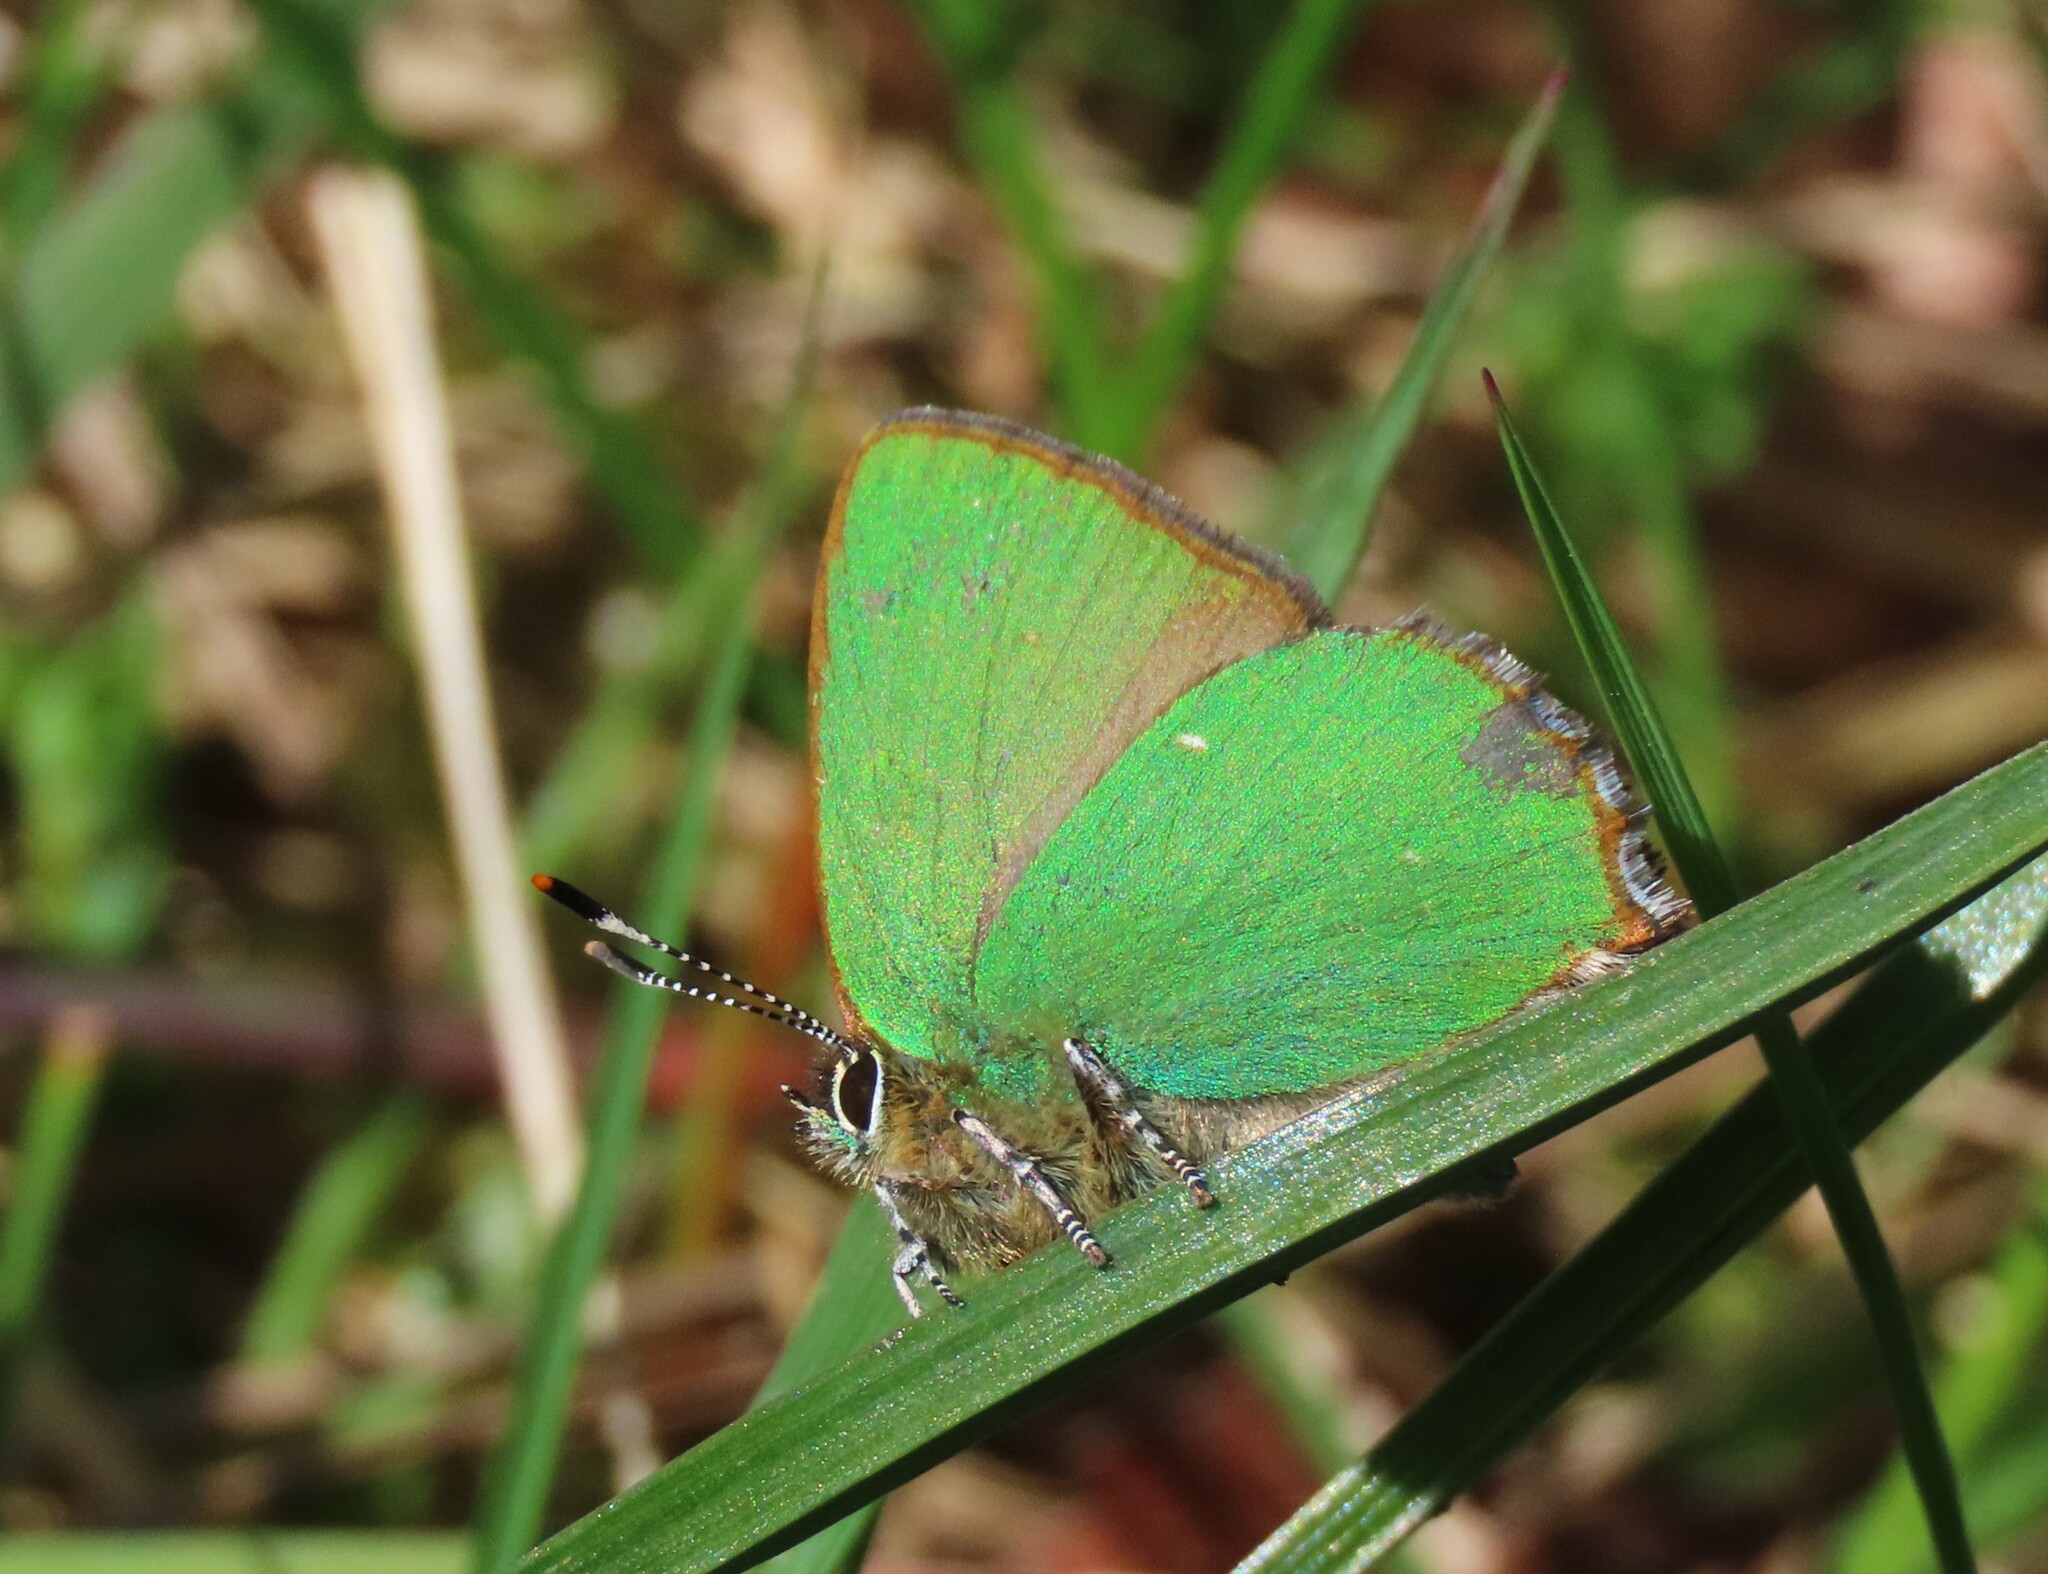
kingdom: Animalia
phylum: Arthropoda
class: Insecta
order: Lepidoptera
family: Lycaenidae
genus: Callophrys
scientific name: Callophrys rubi
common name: Green hairstreak
